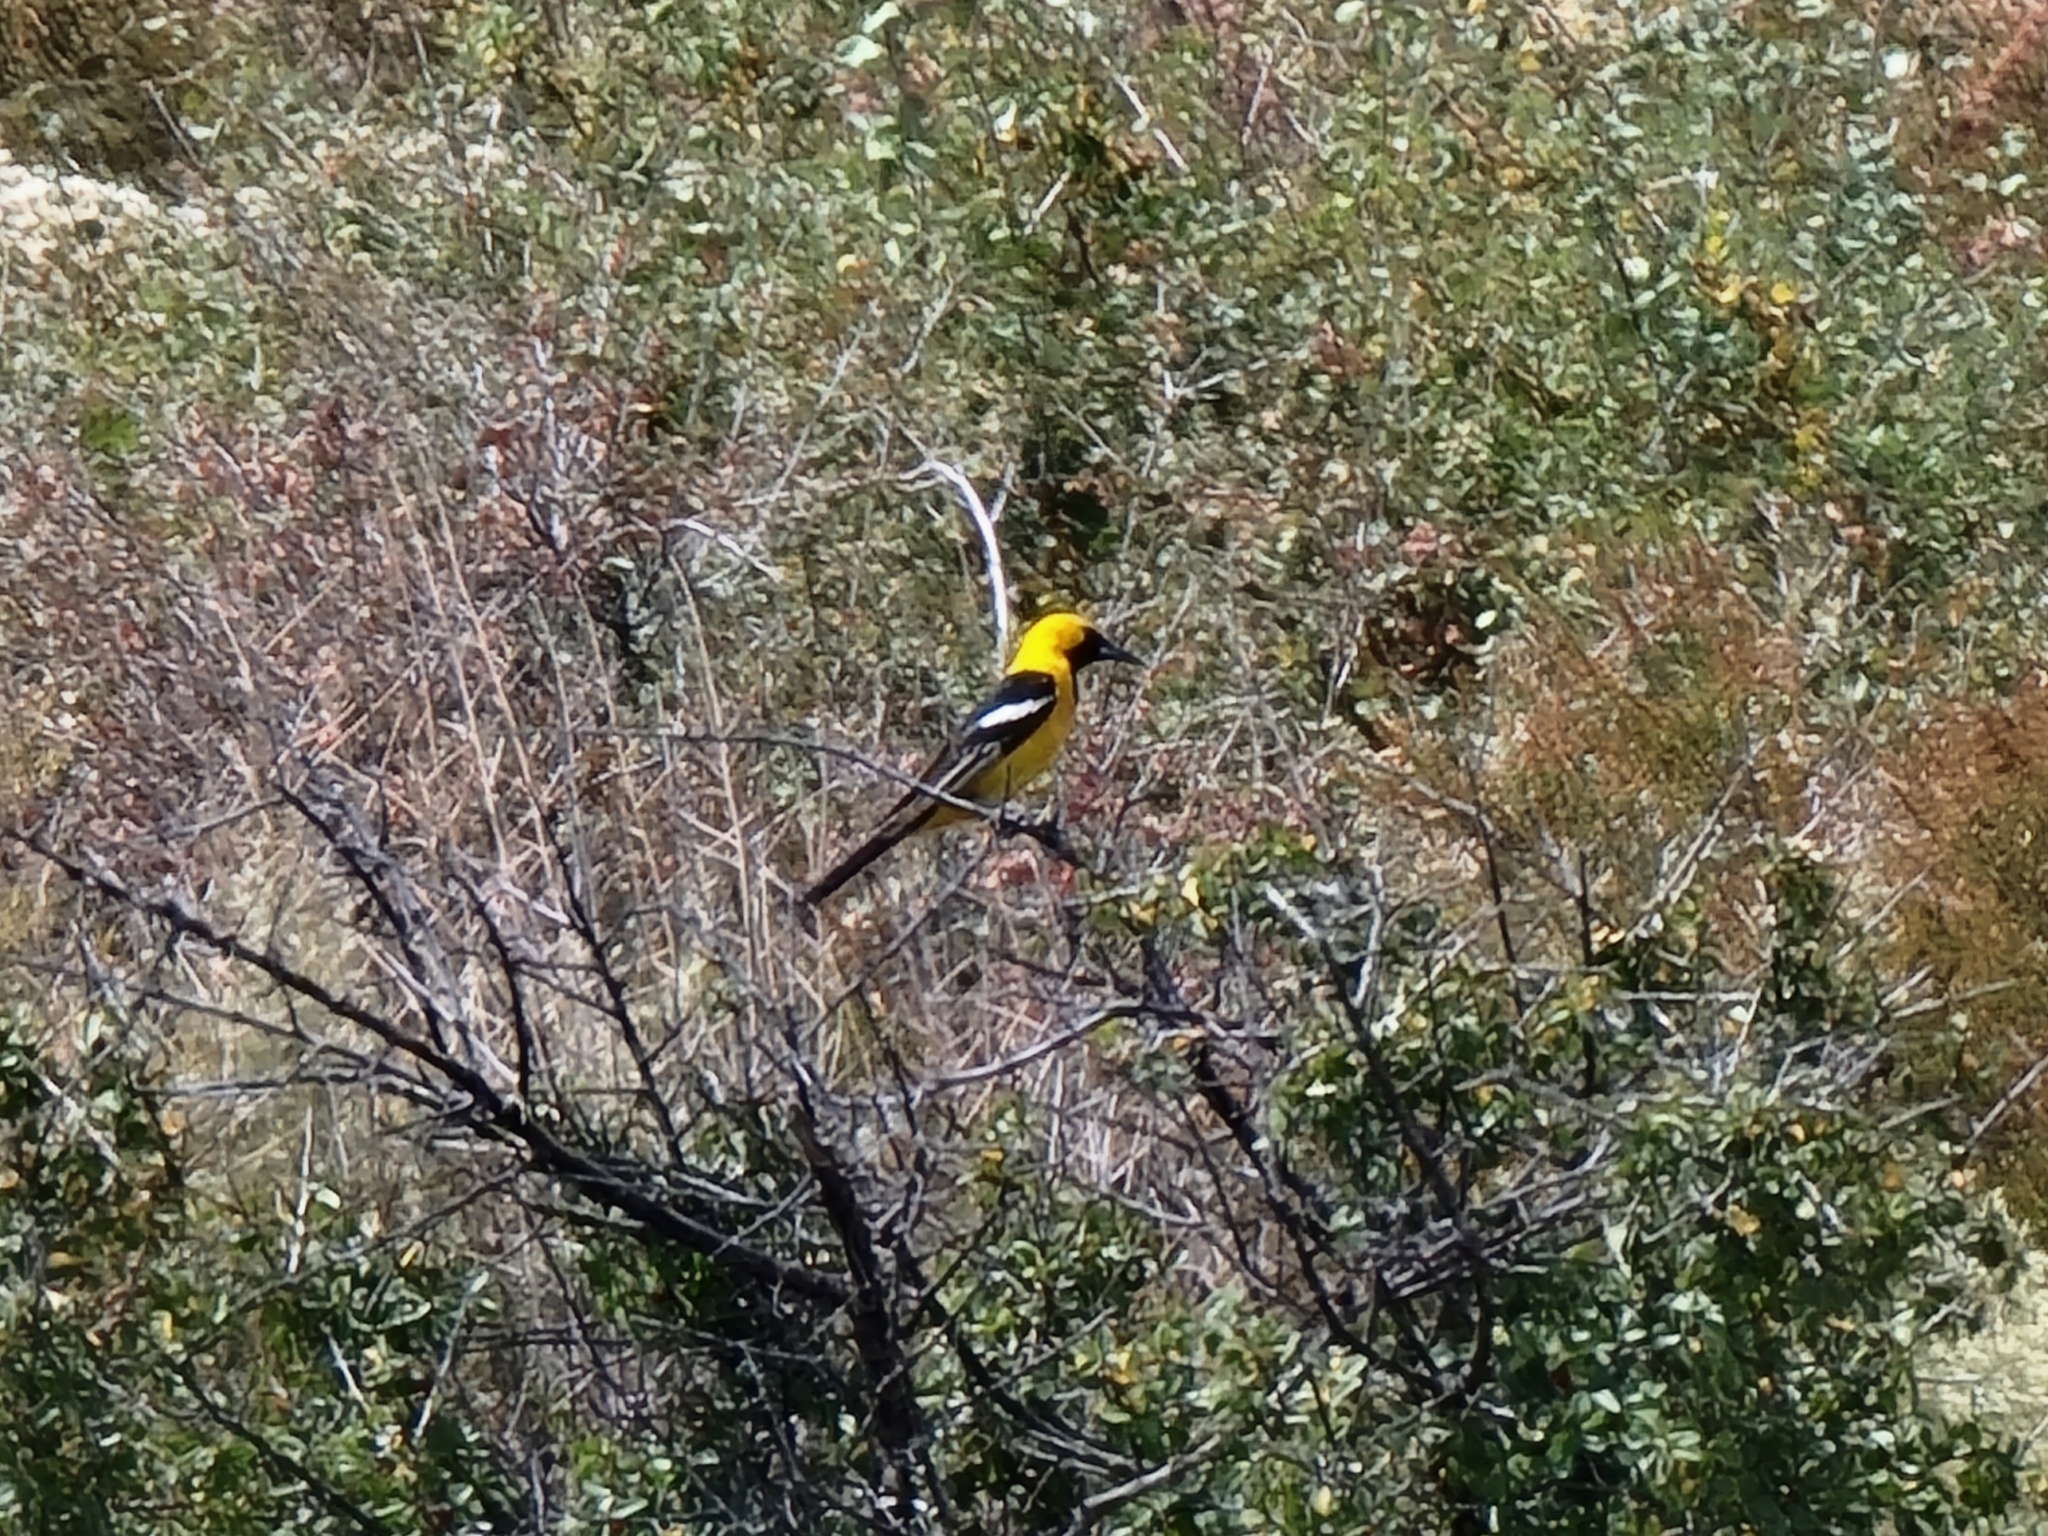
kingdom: Animalia
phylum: Chordata
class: Aves
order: Passeriformes
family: Icteridae
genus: Icterus
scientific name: Icterus cucullatus
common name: Hooded oriole
